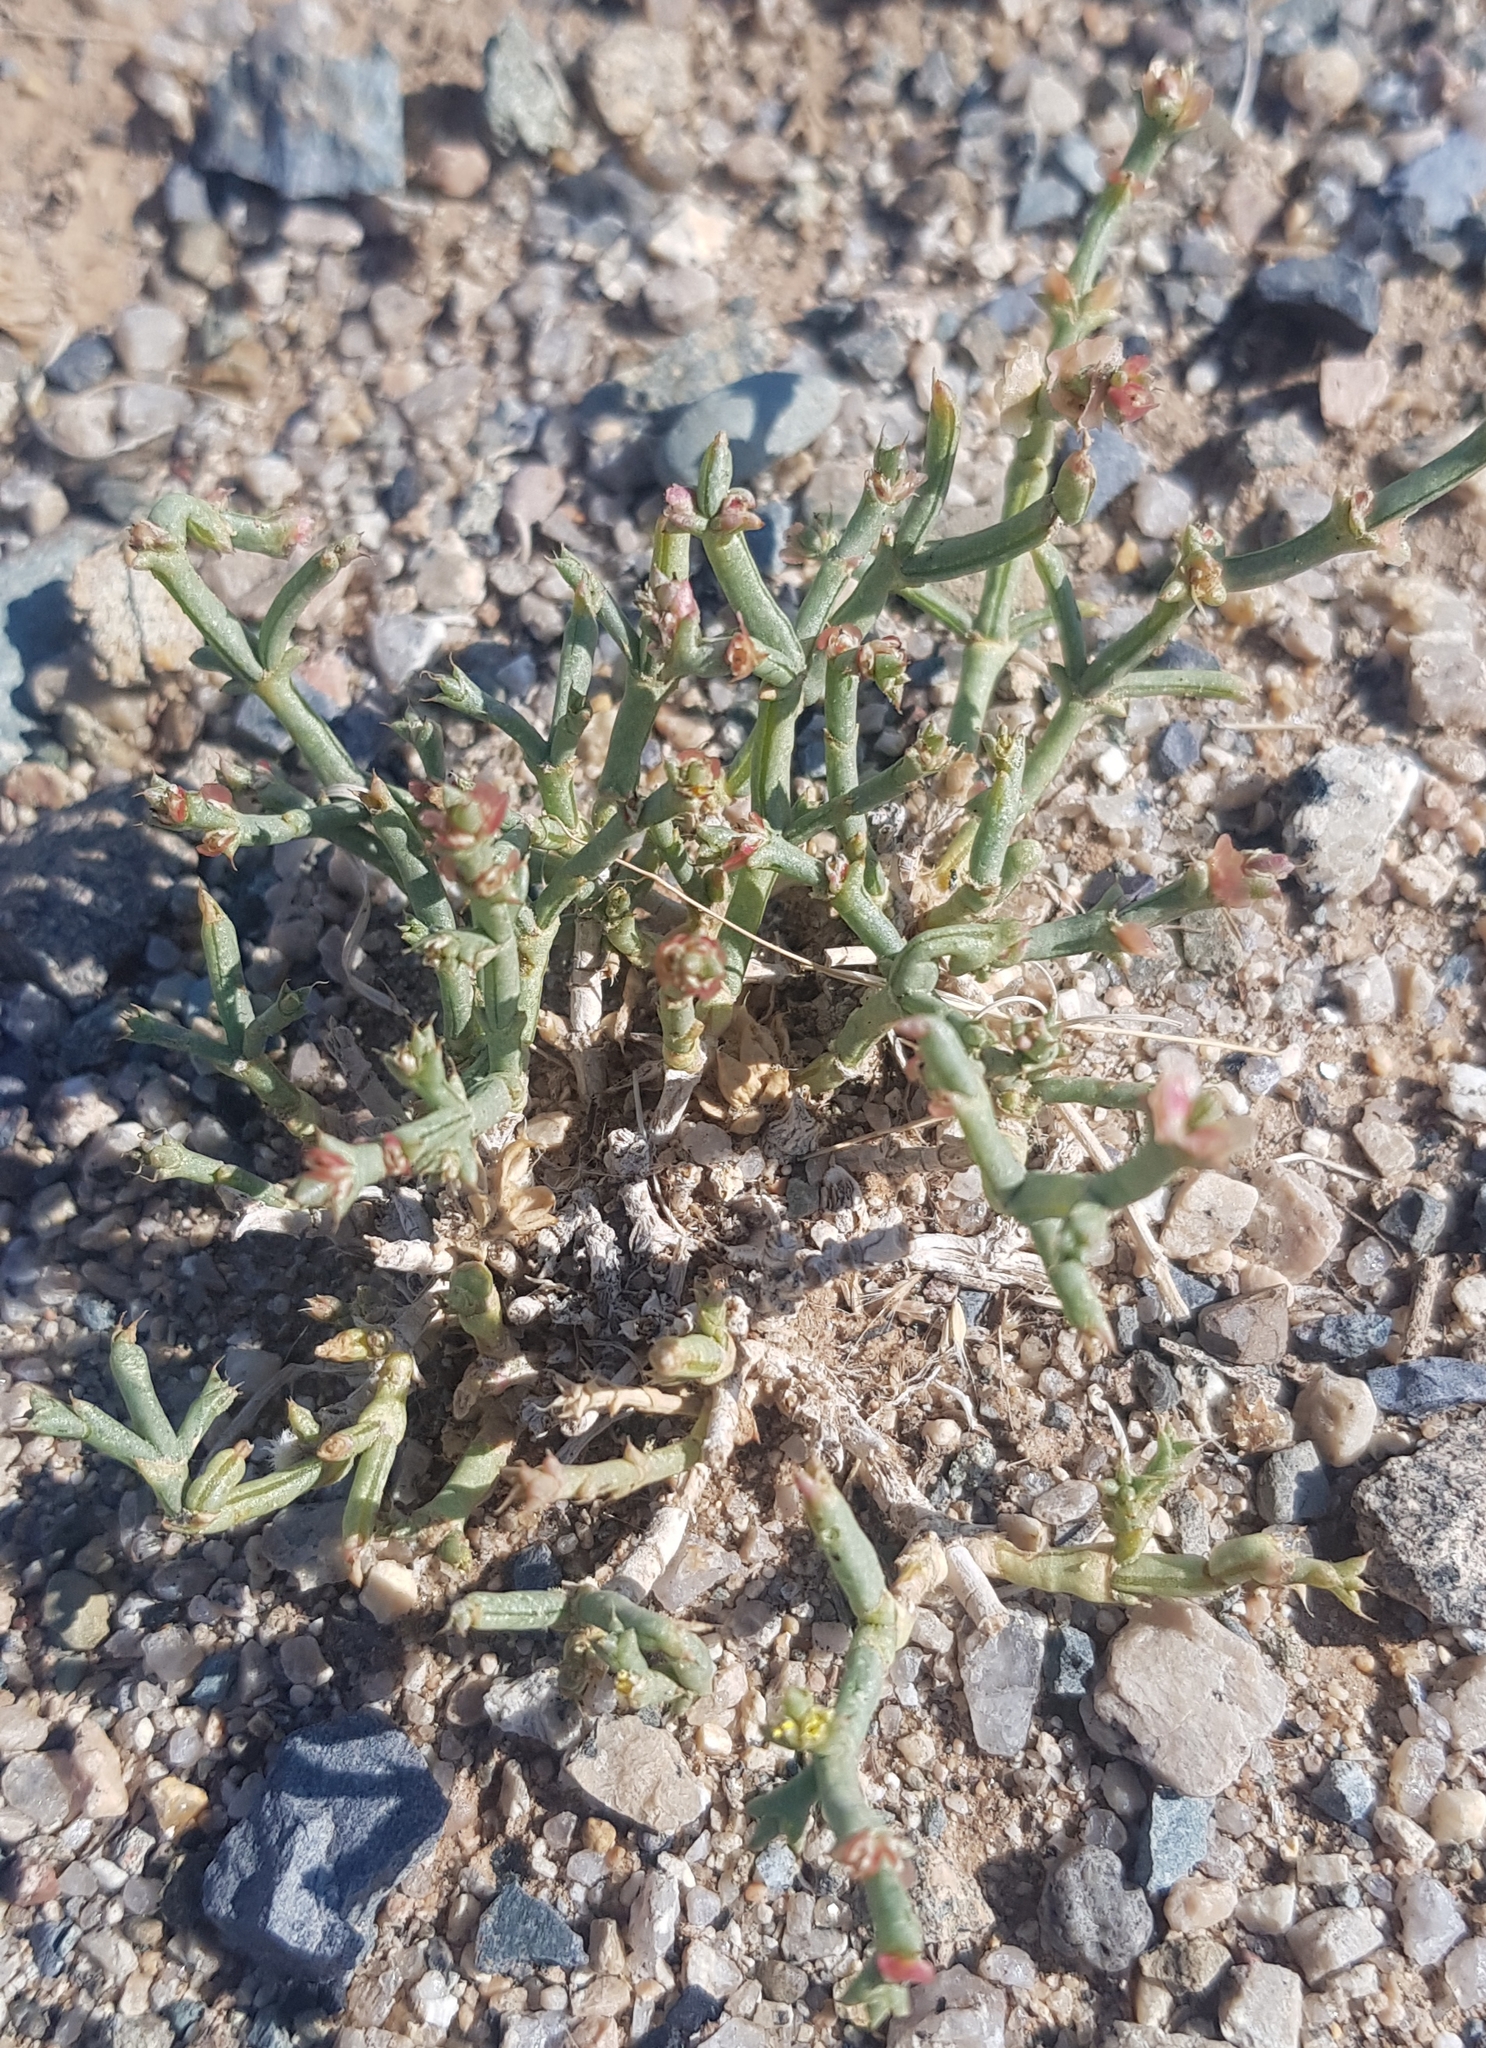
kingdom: Plantae
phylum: Tracheophyta
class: Magnoliopsida
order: Caryophyllales
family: Amaranthaceae
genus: Anabasis
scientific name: Anabasis brevifolia
